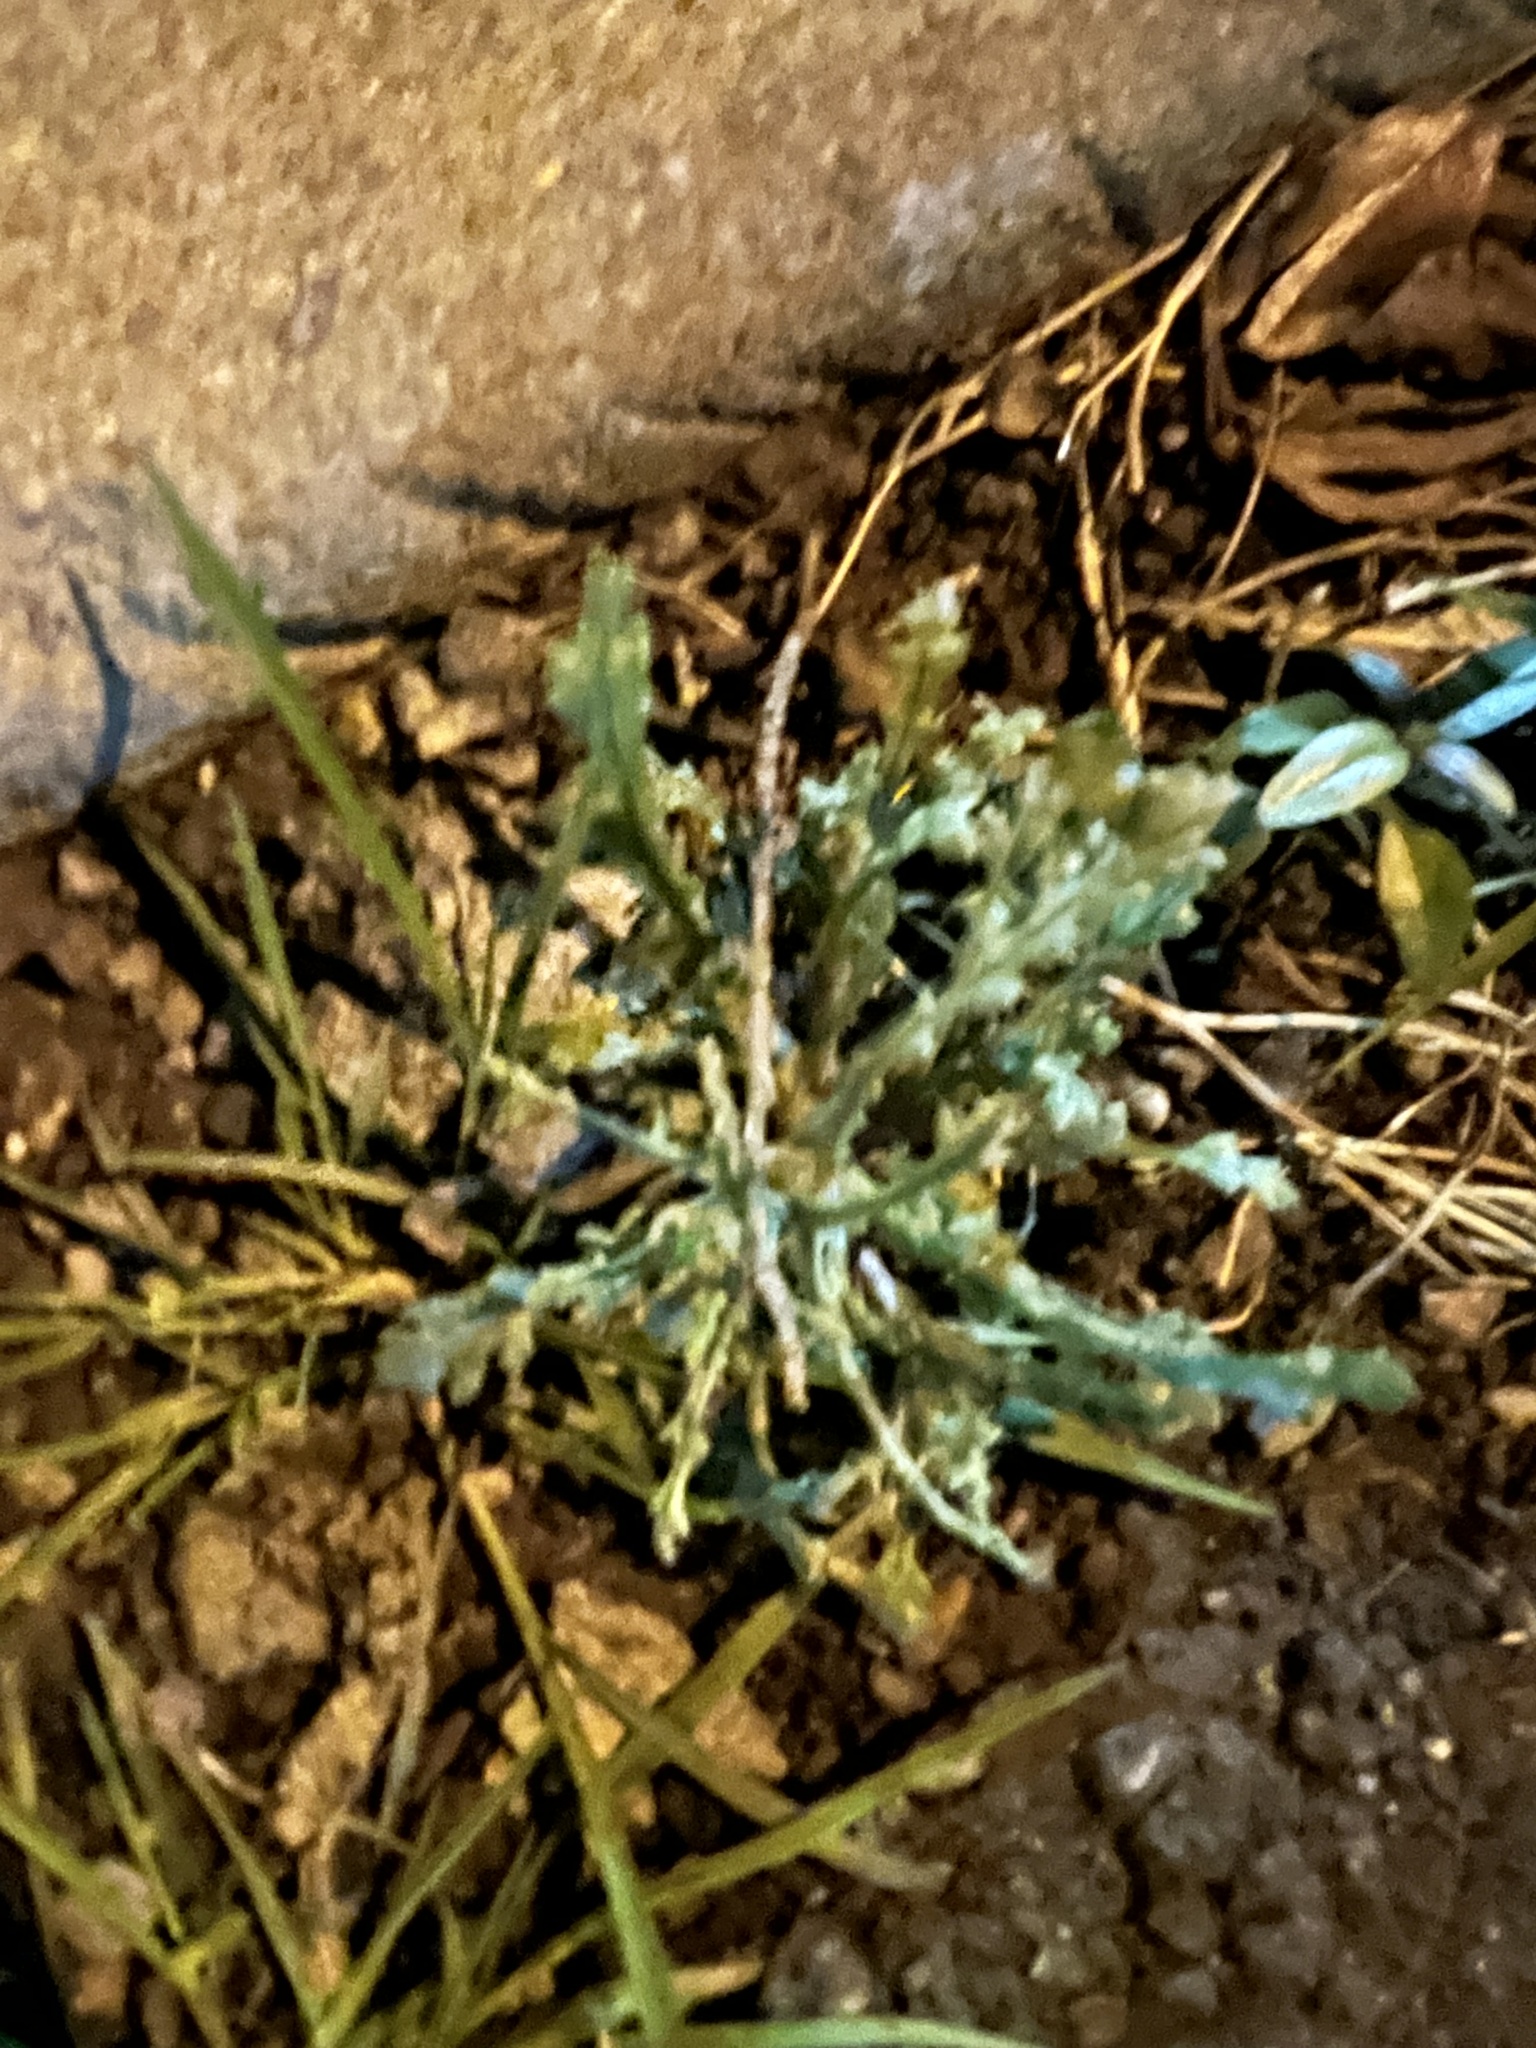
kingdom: Plantae
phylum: Tracheophyta
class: Magnoliopsida
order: Asterales
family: Asteraceae
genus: Senecio
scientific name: Senecio vulgaris
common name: Old-man-in-the-spring
